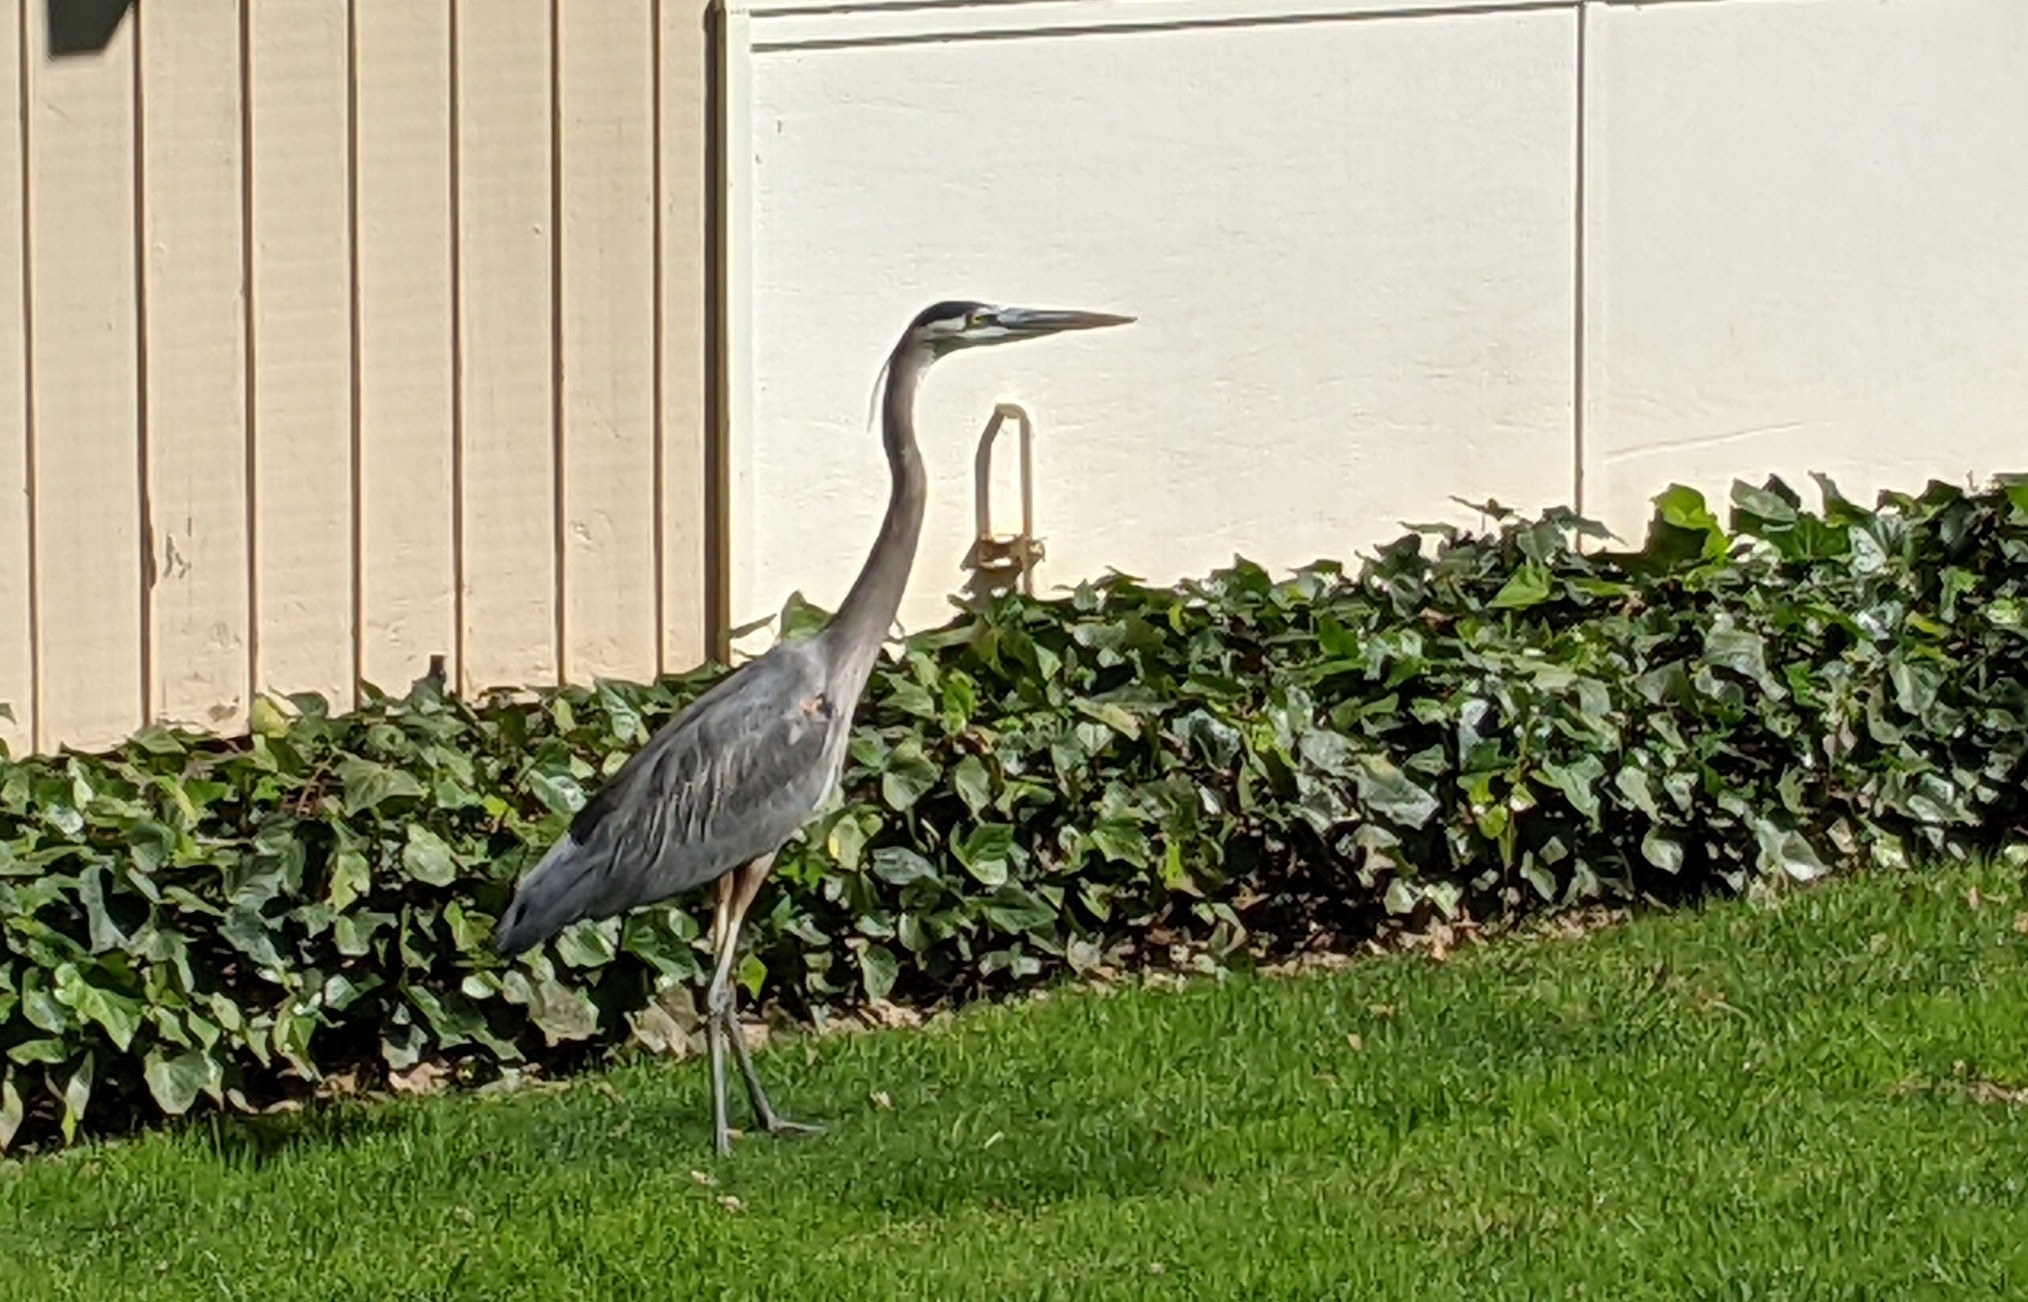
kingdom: Animalia
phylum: Chordata
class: Aves
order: Pelecaniformes
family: Ardeidae
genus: Ardea
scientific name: Ardea herodias
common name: Great blue heron
